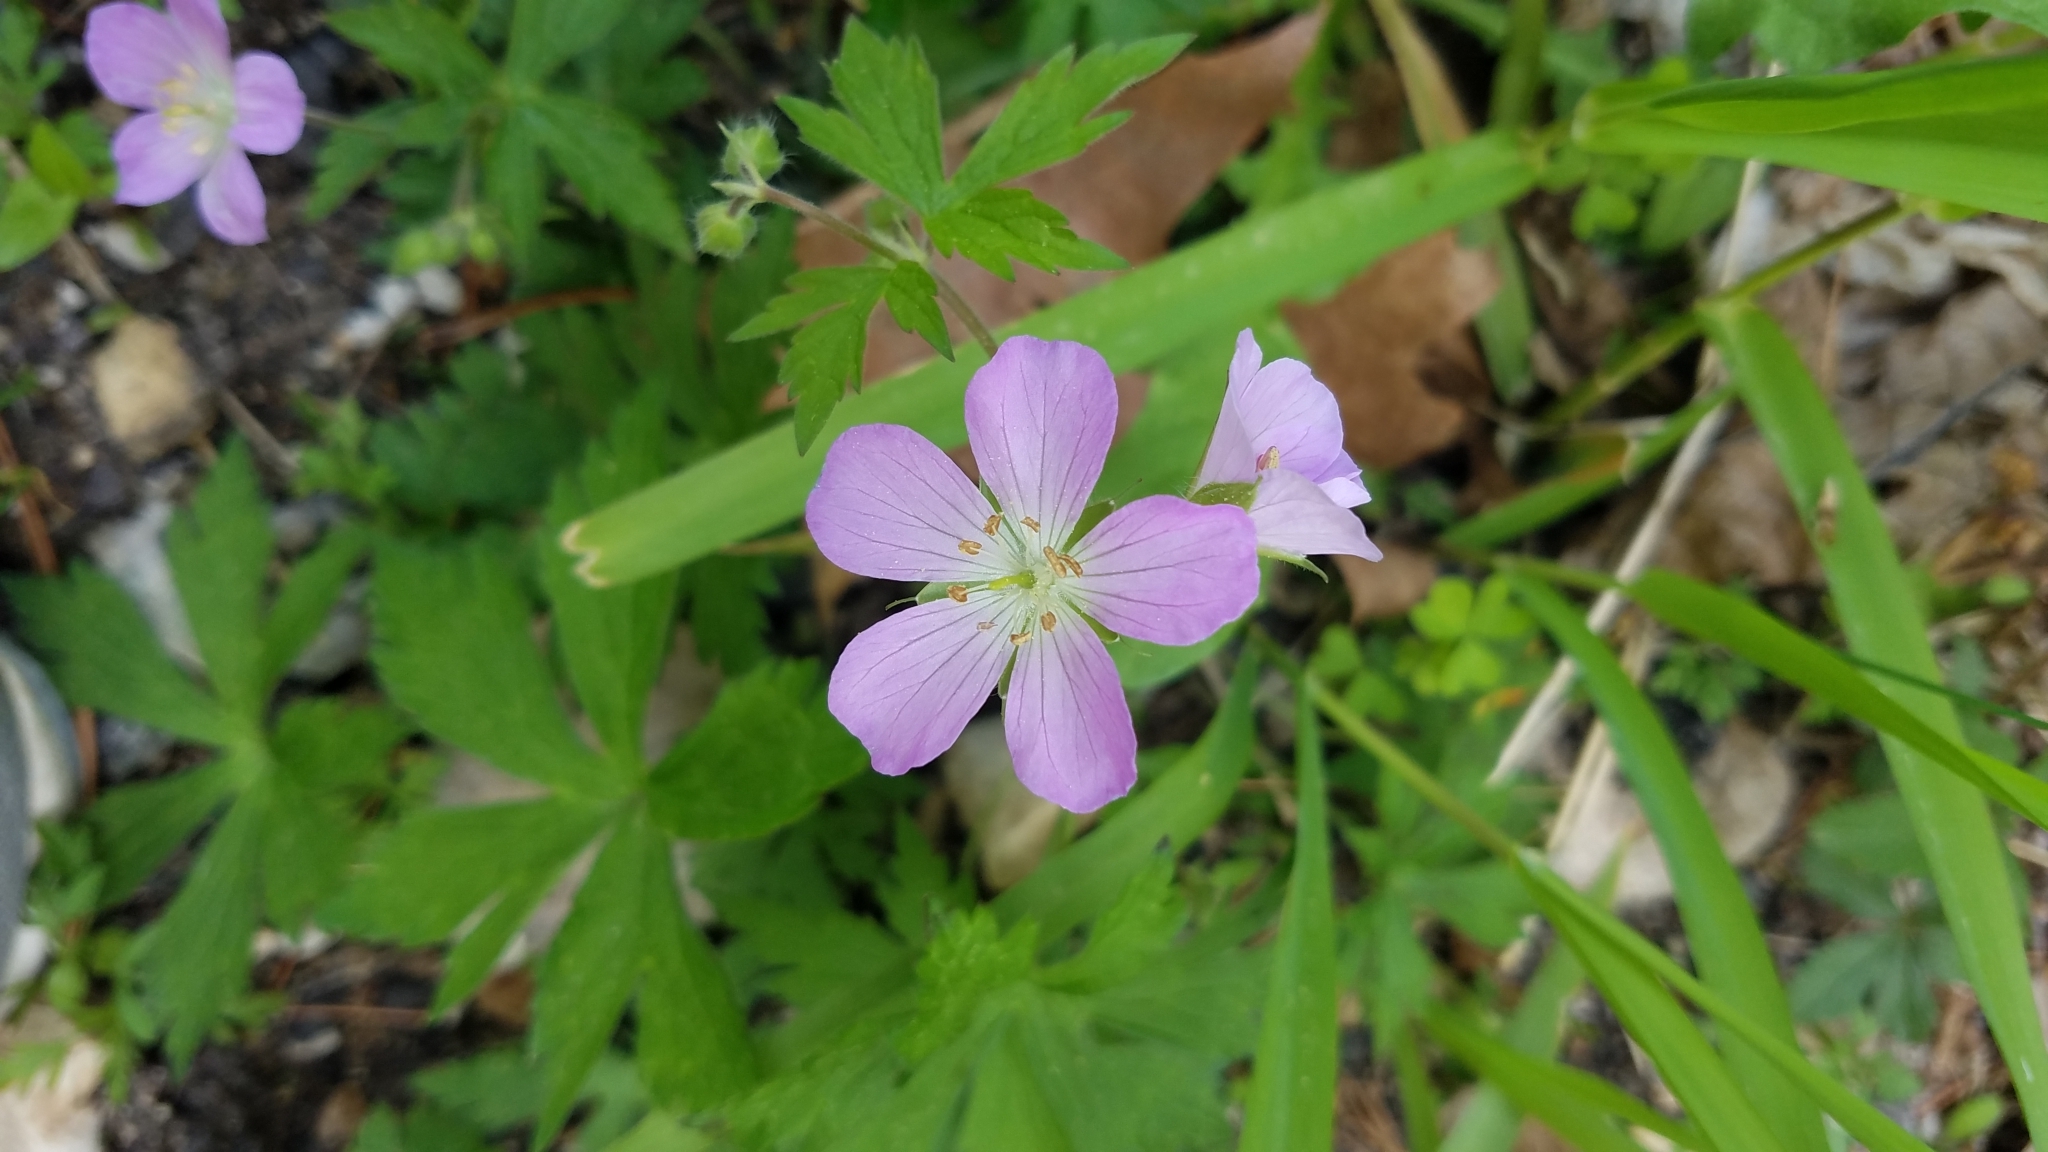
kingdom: Plantae
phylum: Tracheophyta
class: Magnoliopsida
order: Geraniales
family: Geraniaceae
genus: Geranium
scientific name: Geranium maculatum
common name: Spotted geranium
